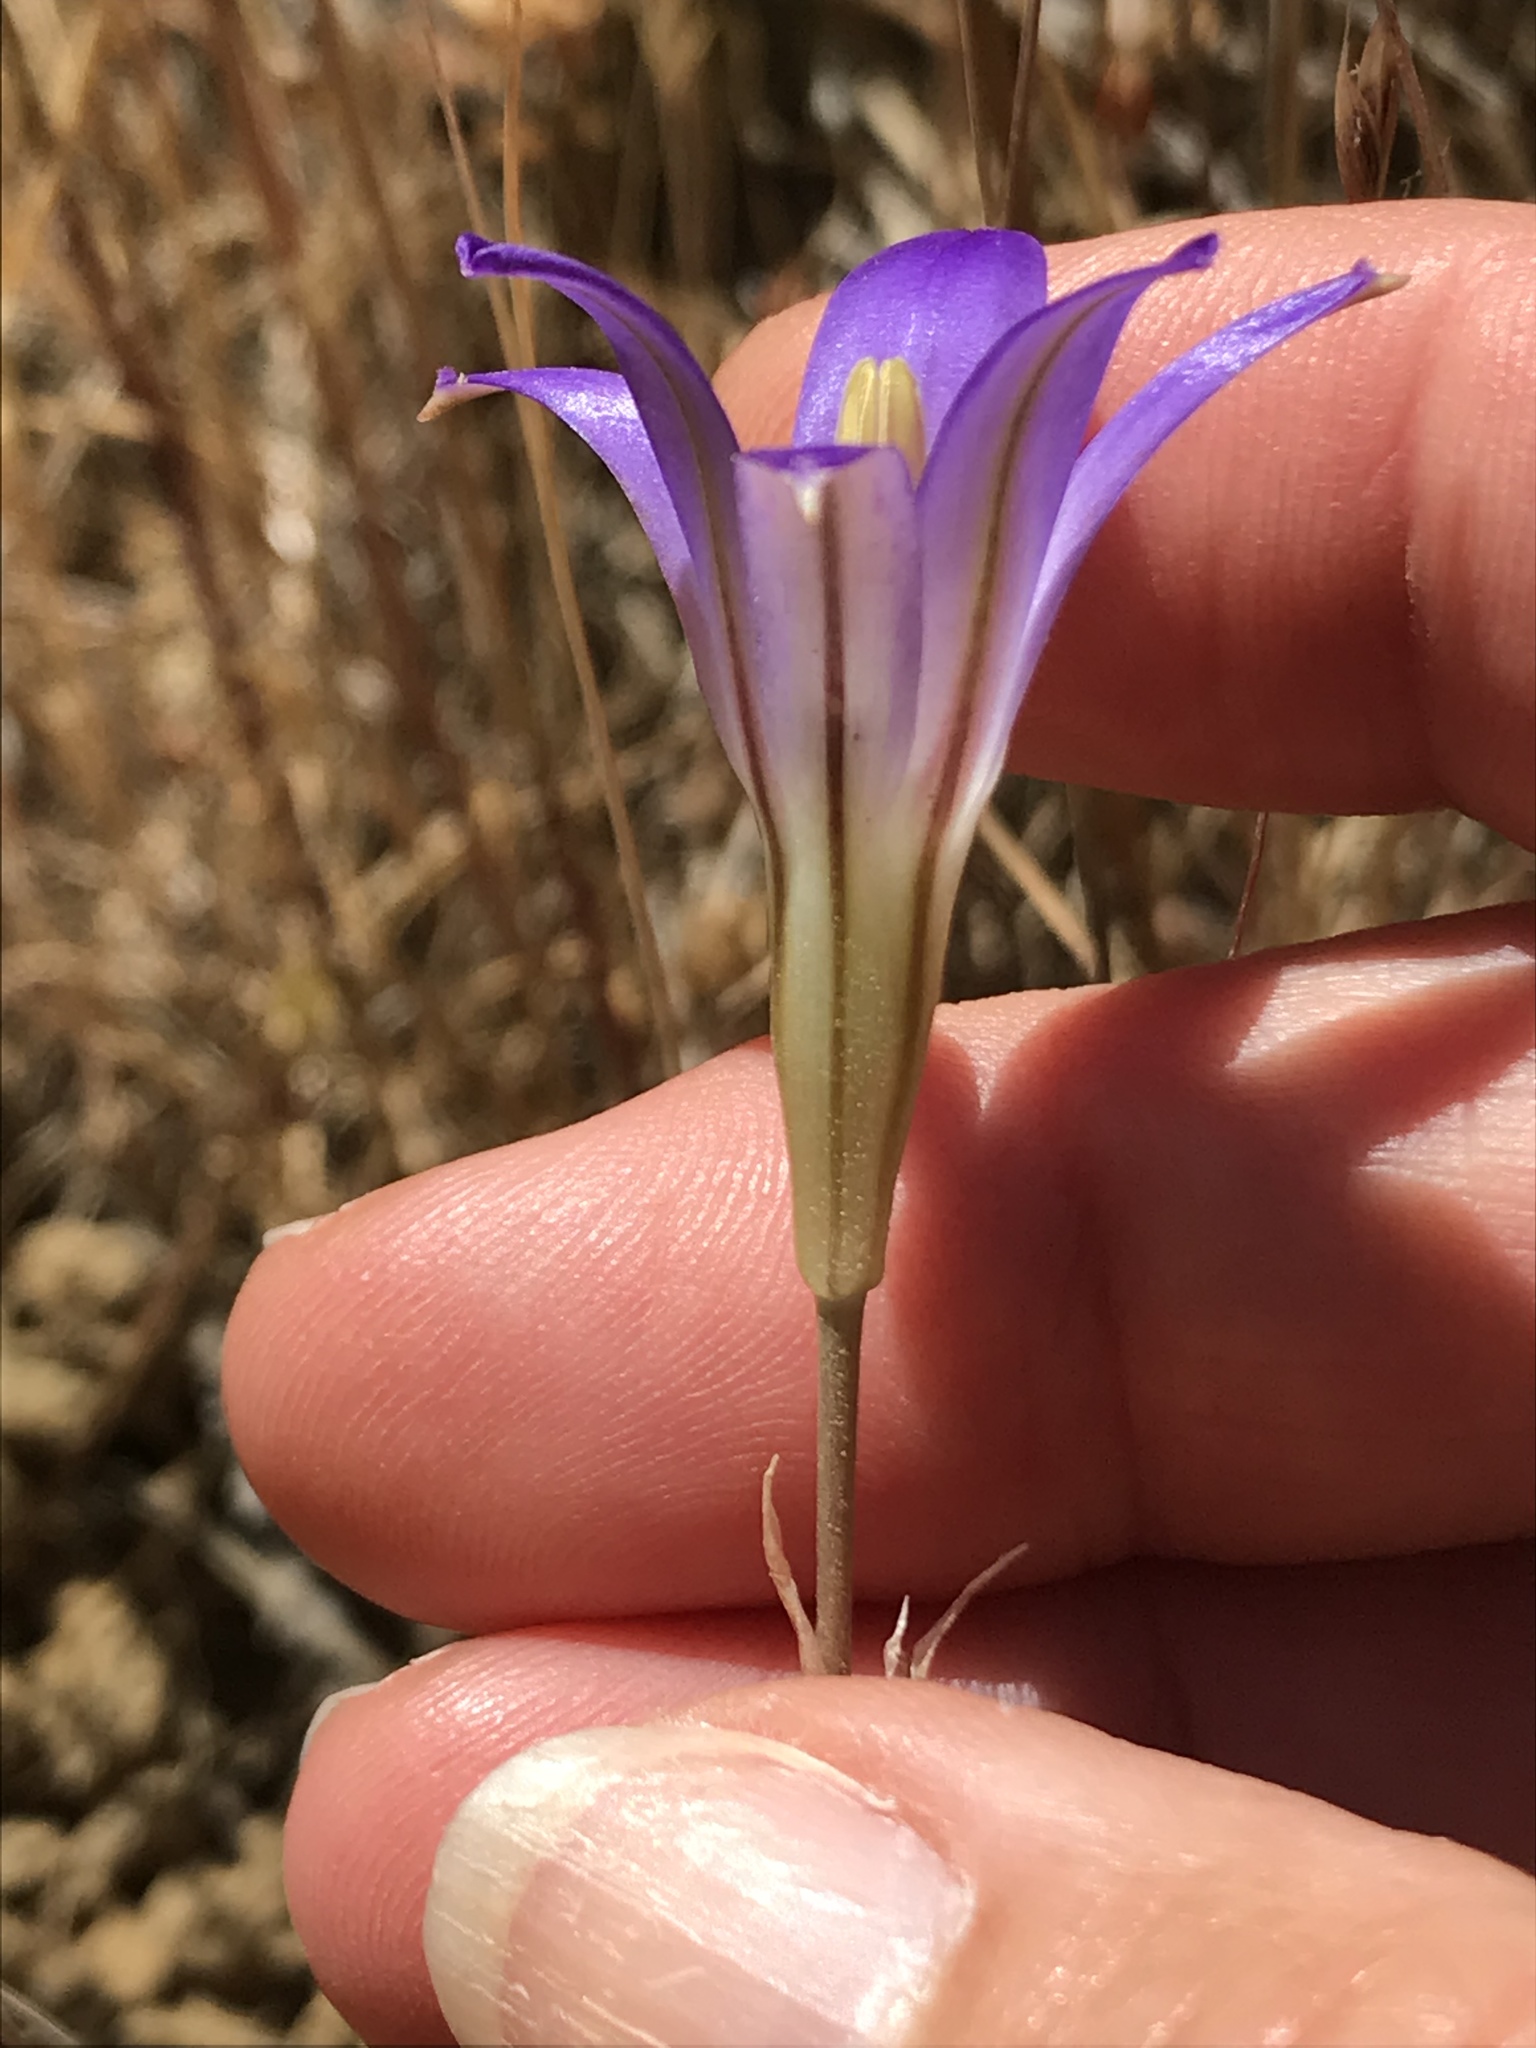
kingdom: Plantae
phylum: Tracheophyta
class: Liliopsida
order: Asparagales
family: Asparagaceae
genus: Brodiaea
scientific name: Brodiaea elegans
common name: Elegant cluster-lily
